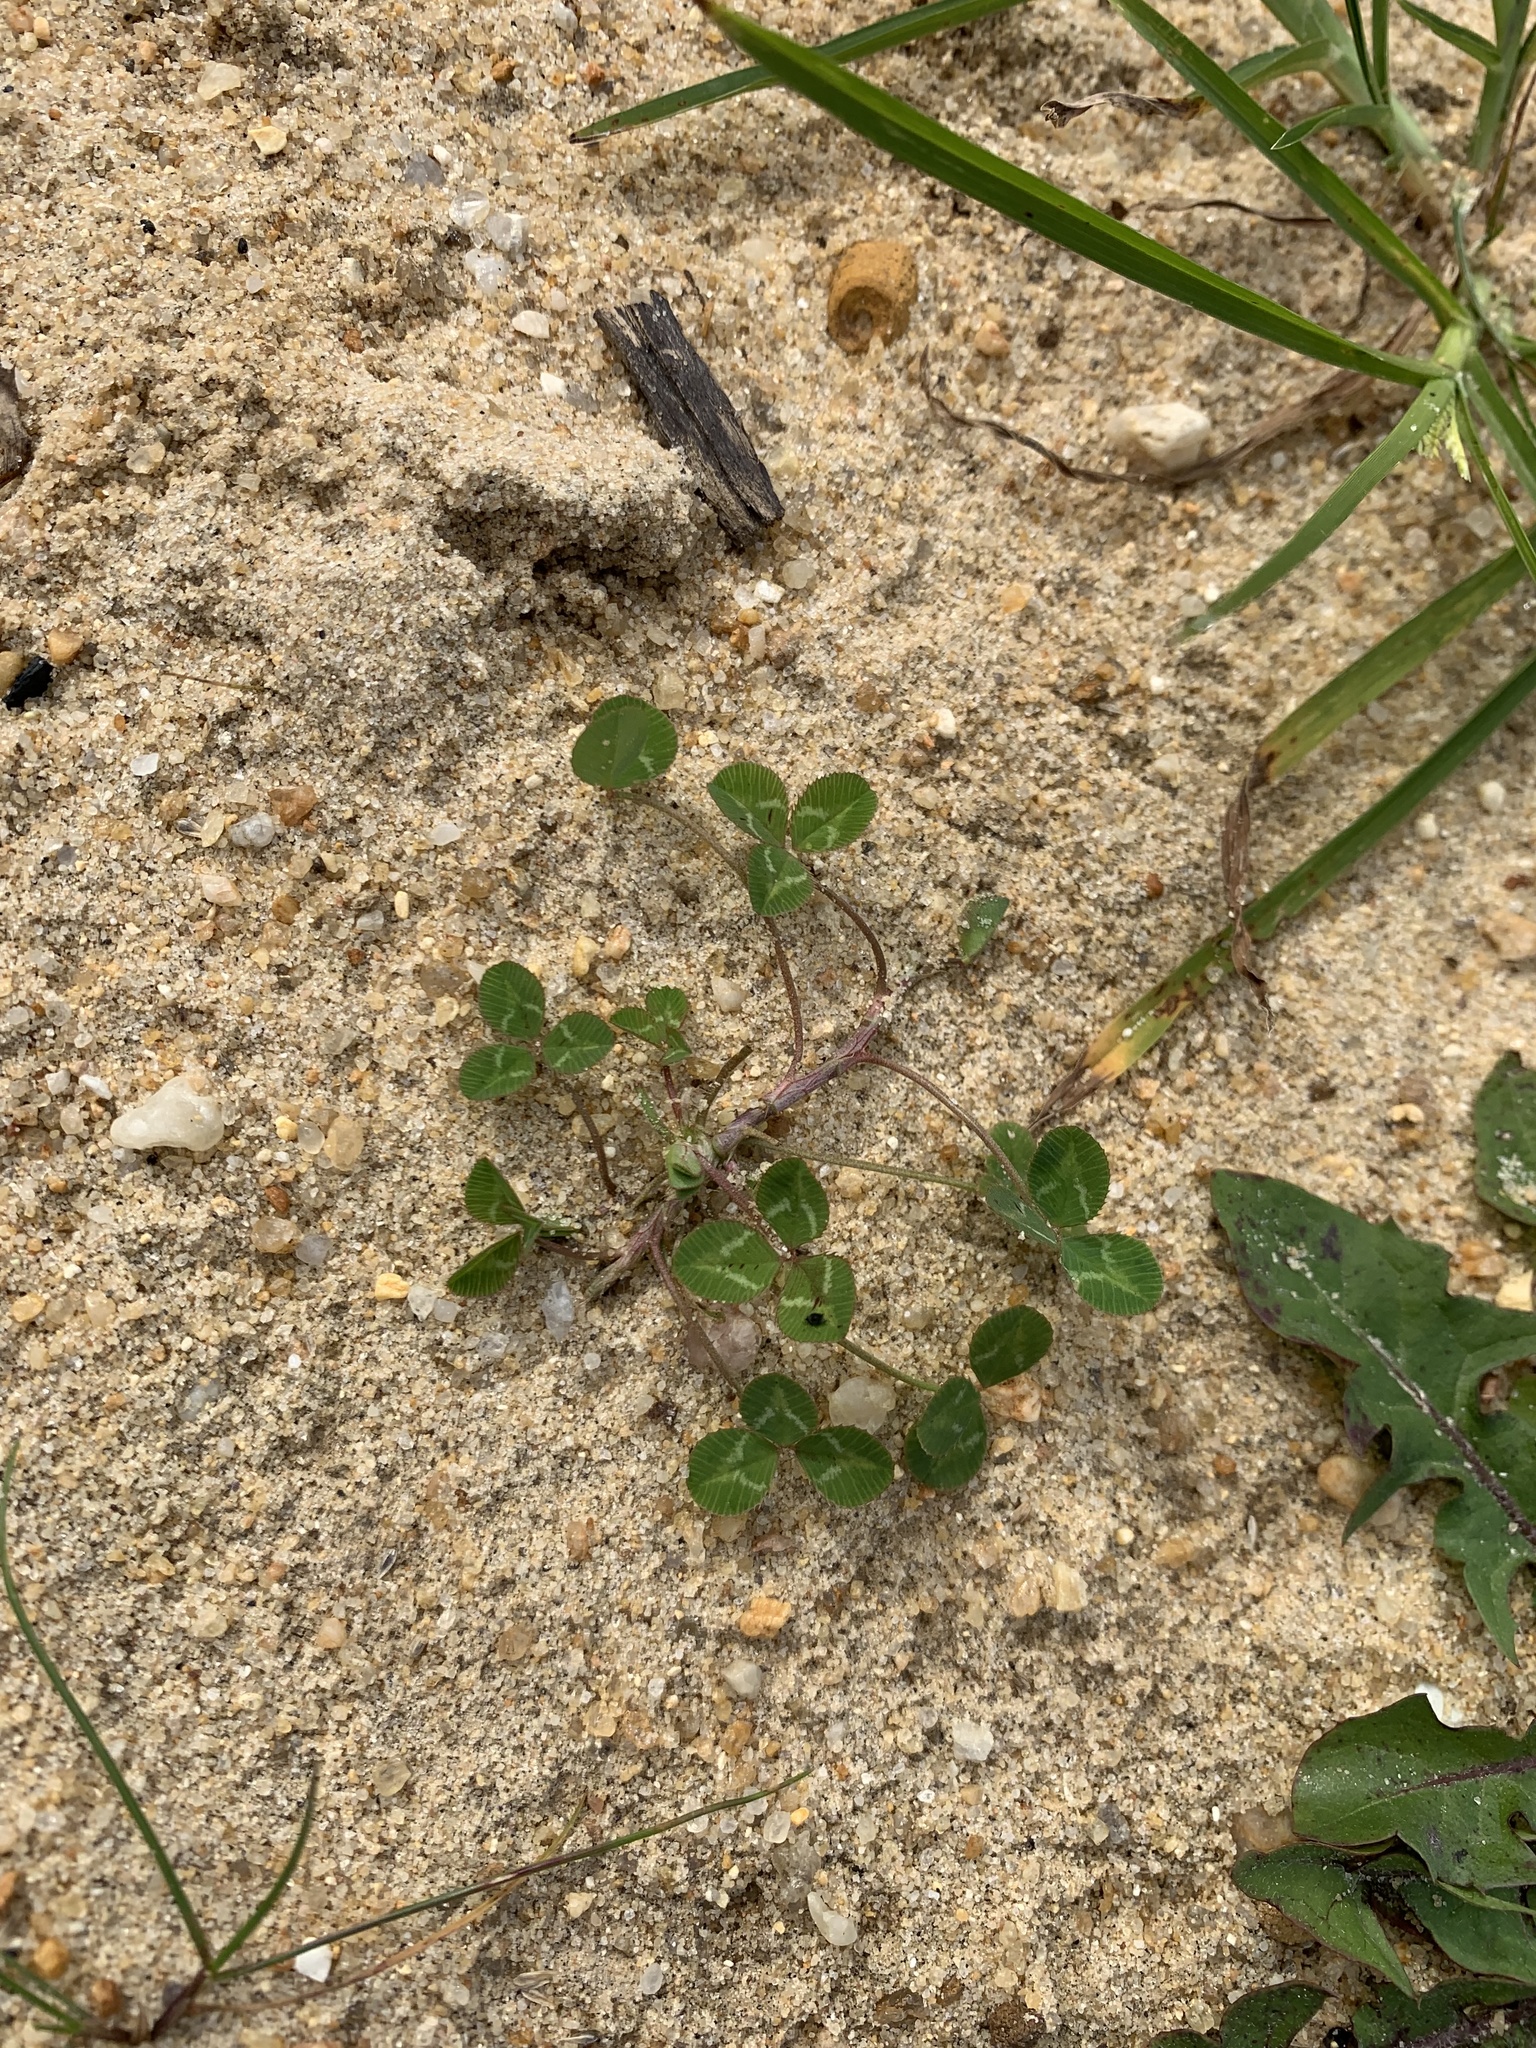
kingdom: Plantae
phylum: Tracheophyta
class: Magnoliopsida
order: Fabales
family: Fabaceae
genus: Trifolium
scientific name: Trifolium repens
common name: White clover
